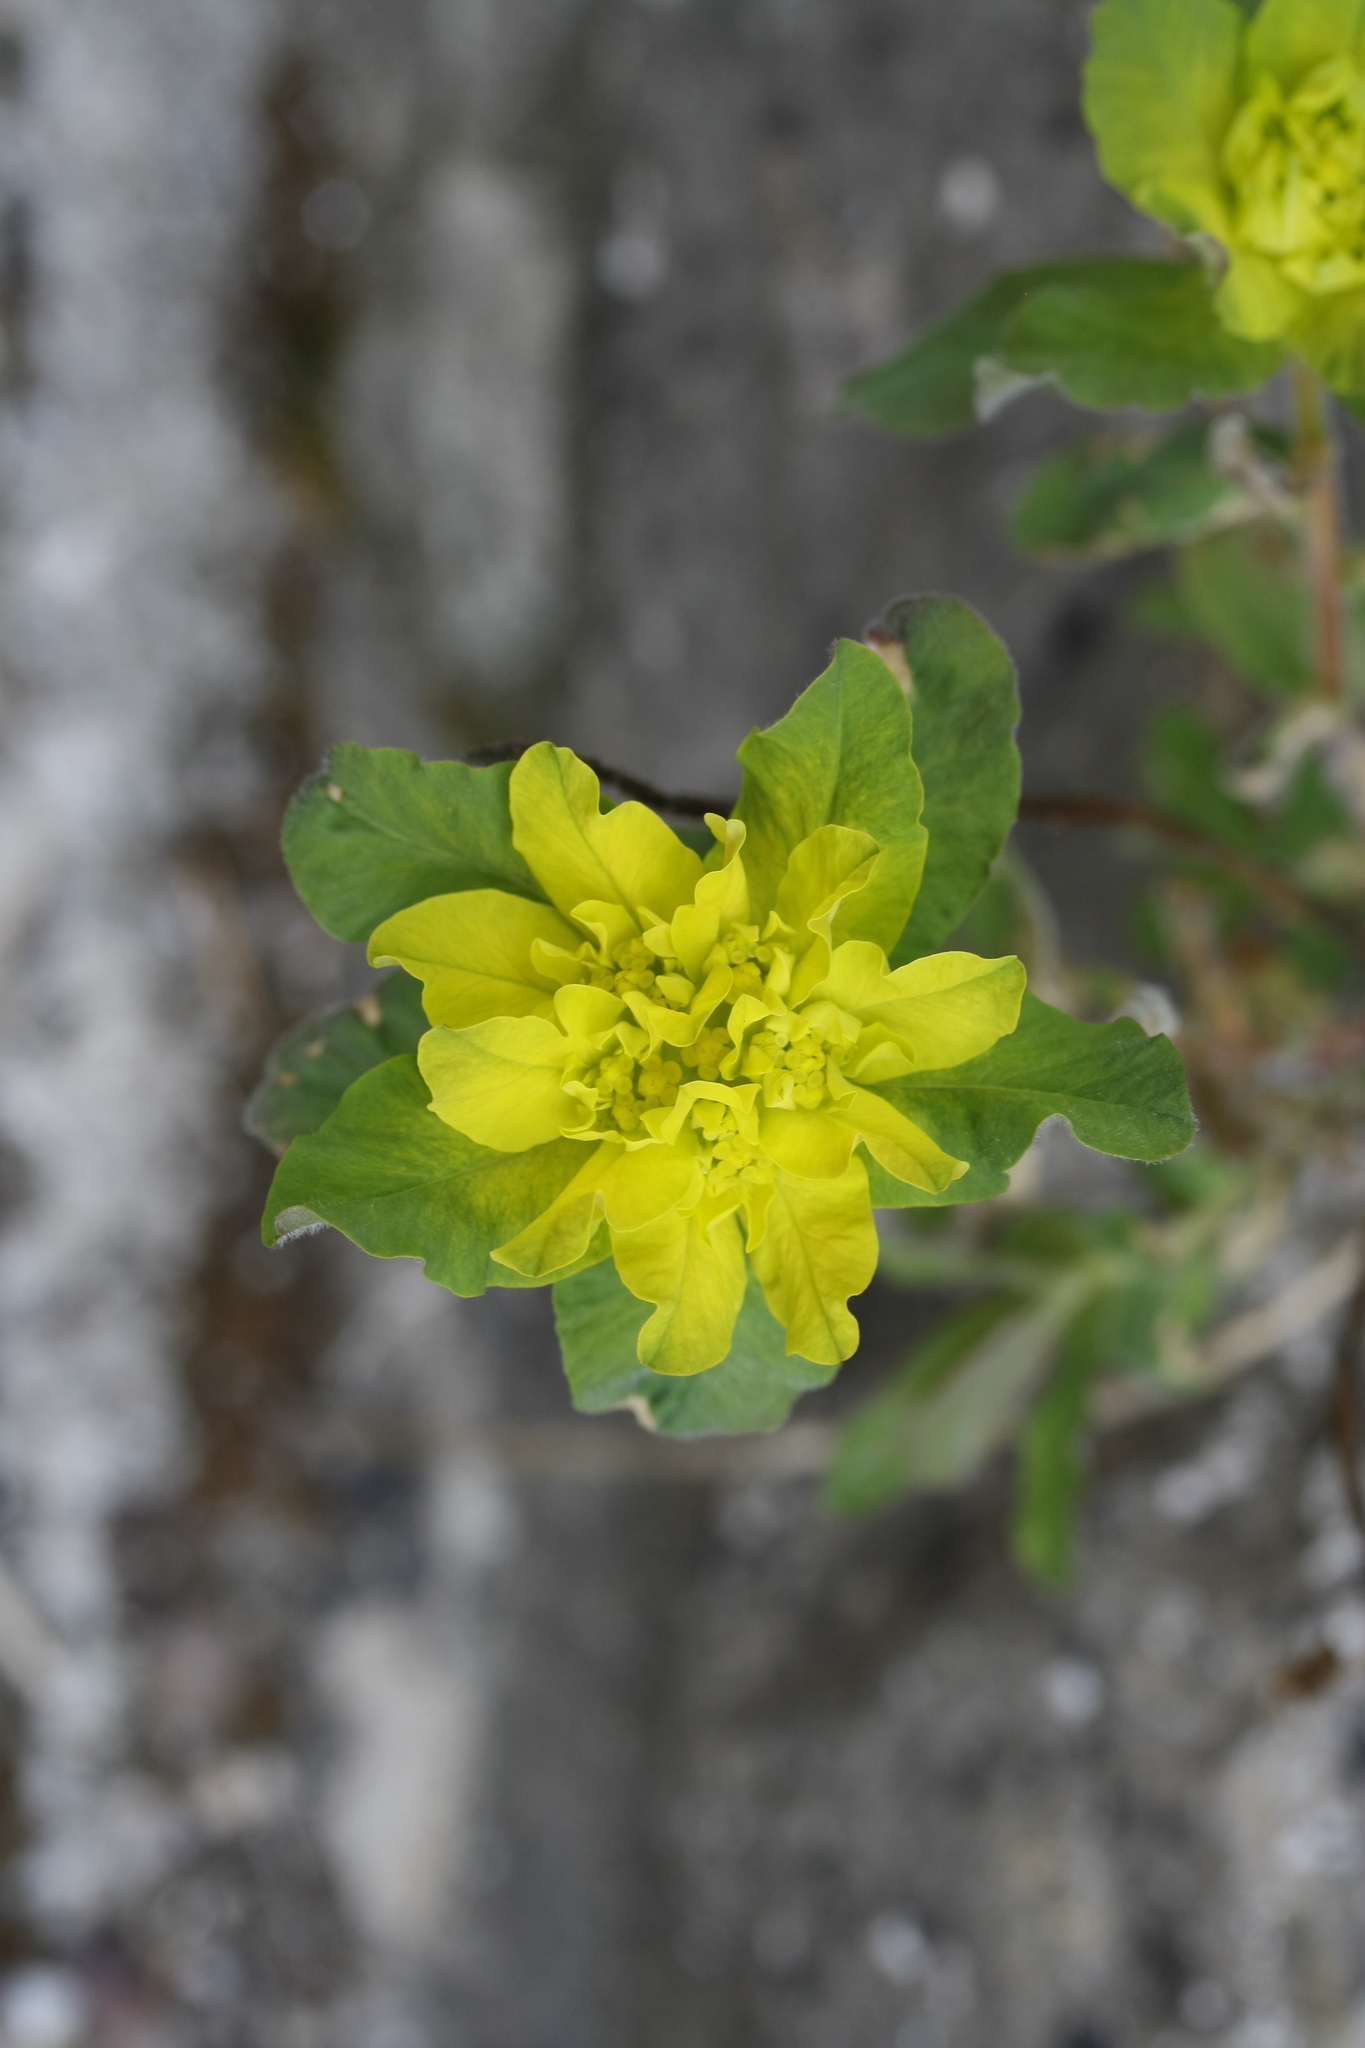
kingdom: Plantae
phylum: Tracheophyta
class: Magnoliopsida
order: Malpighiales
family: Euphorbiaceae
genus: Euphorbia
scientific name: Euphorbia epithymoides
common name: Cushion spurge
